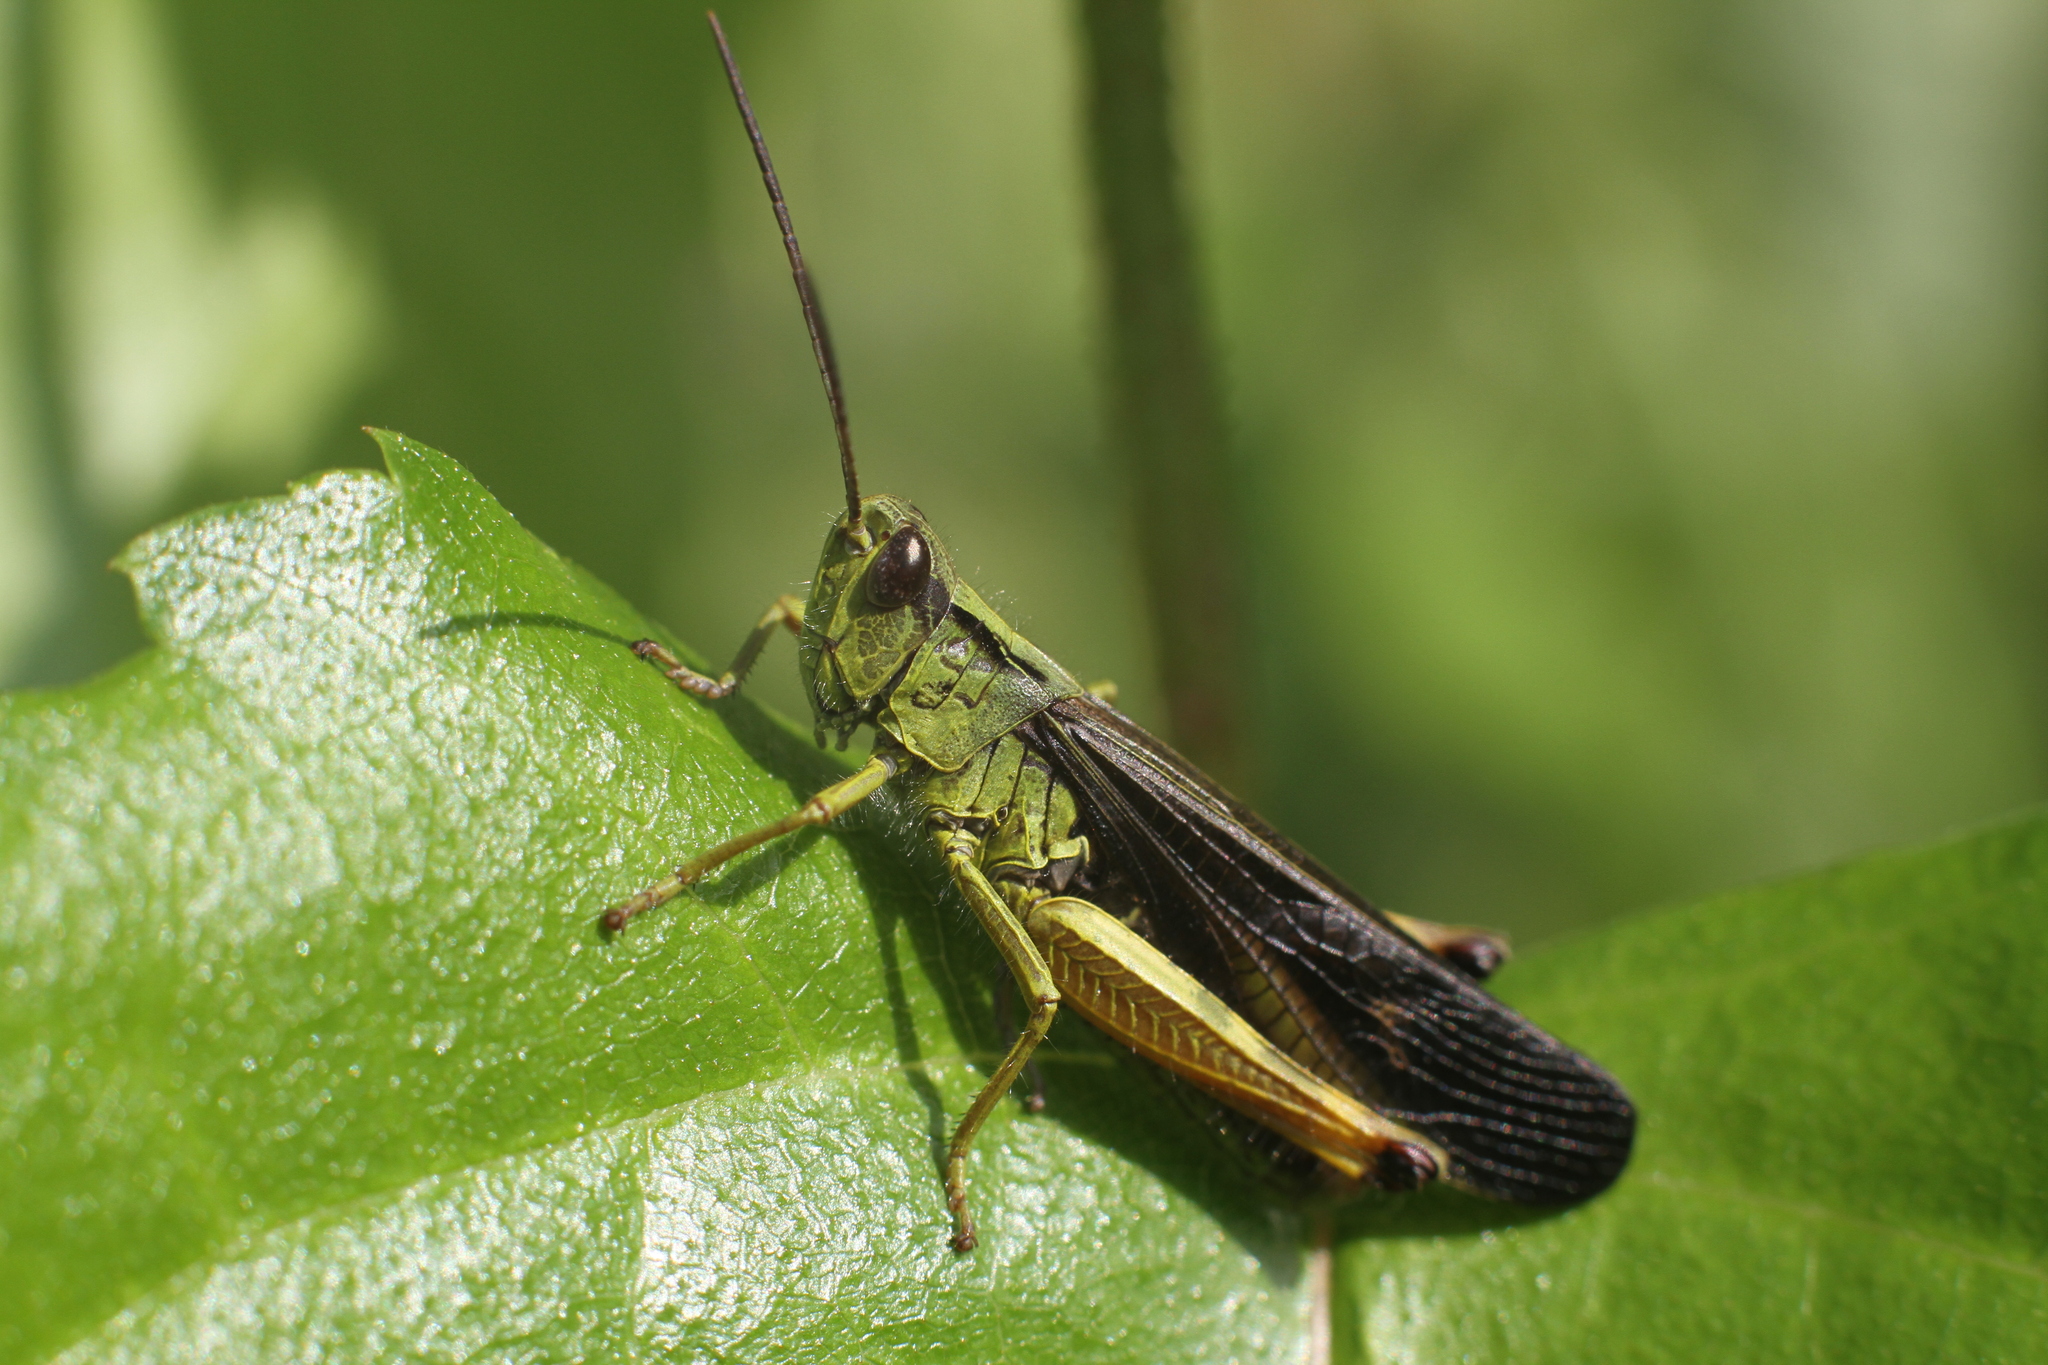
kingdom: Animalia
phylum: Arthropoda
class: Insecta
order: Orthoptera
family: Acrididae
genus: Megaulacobothrus
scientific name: Megaulacobothrus aethalinus
